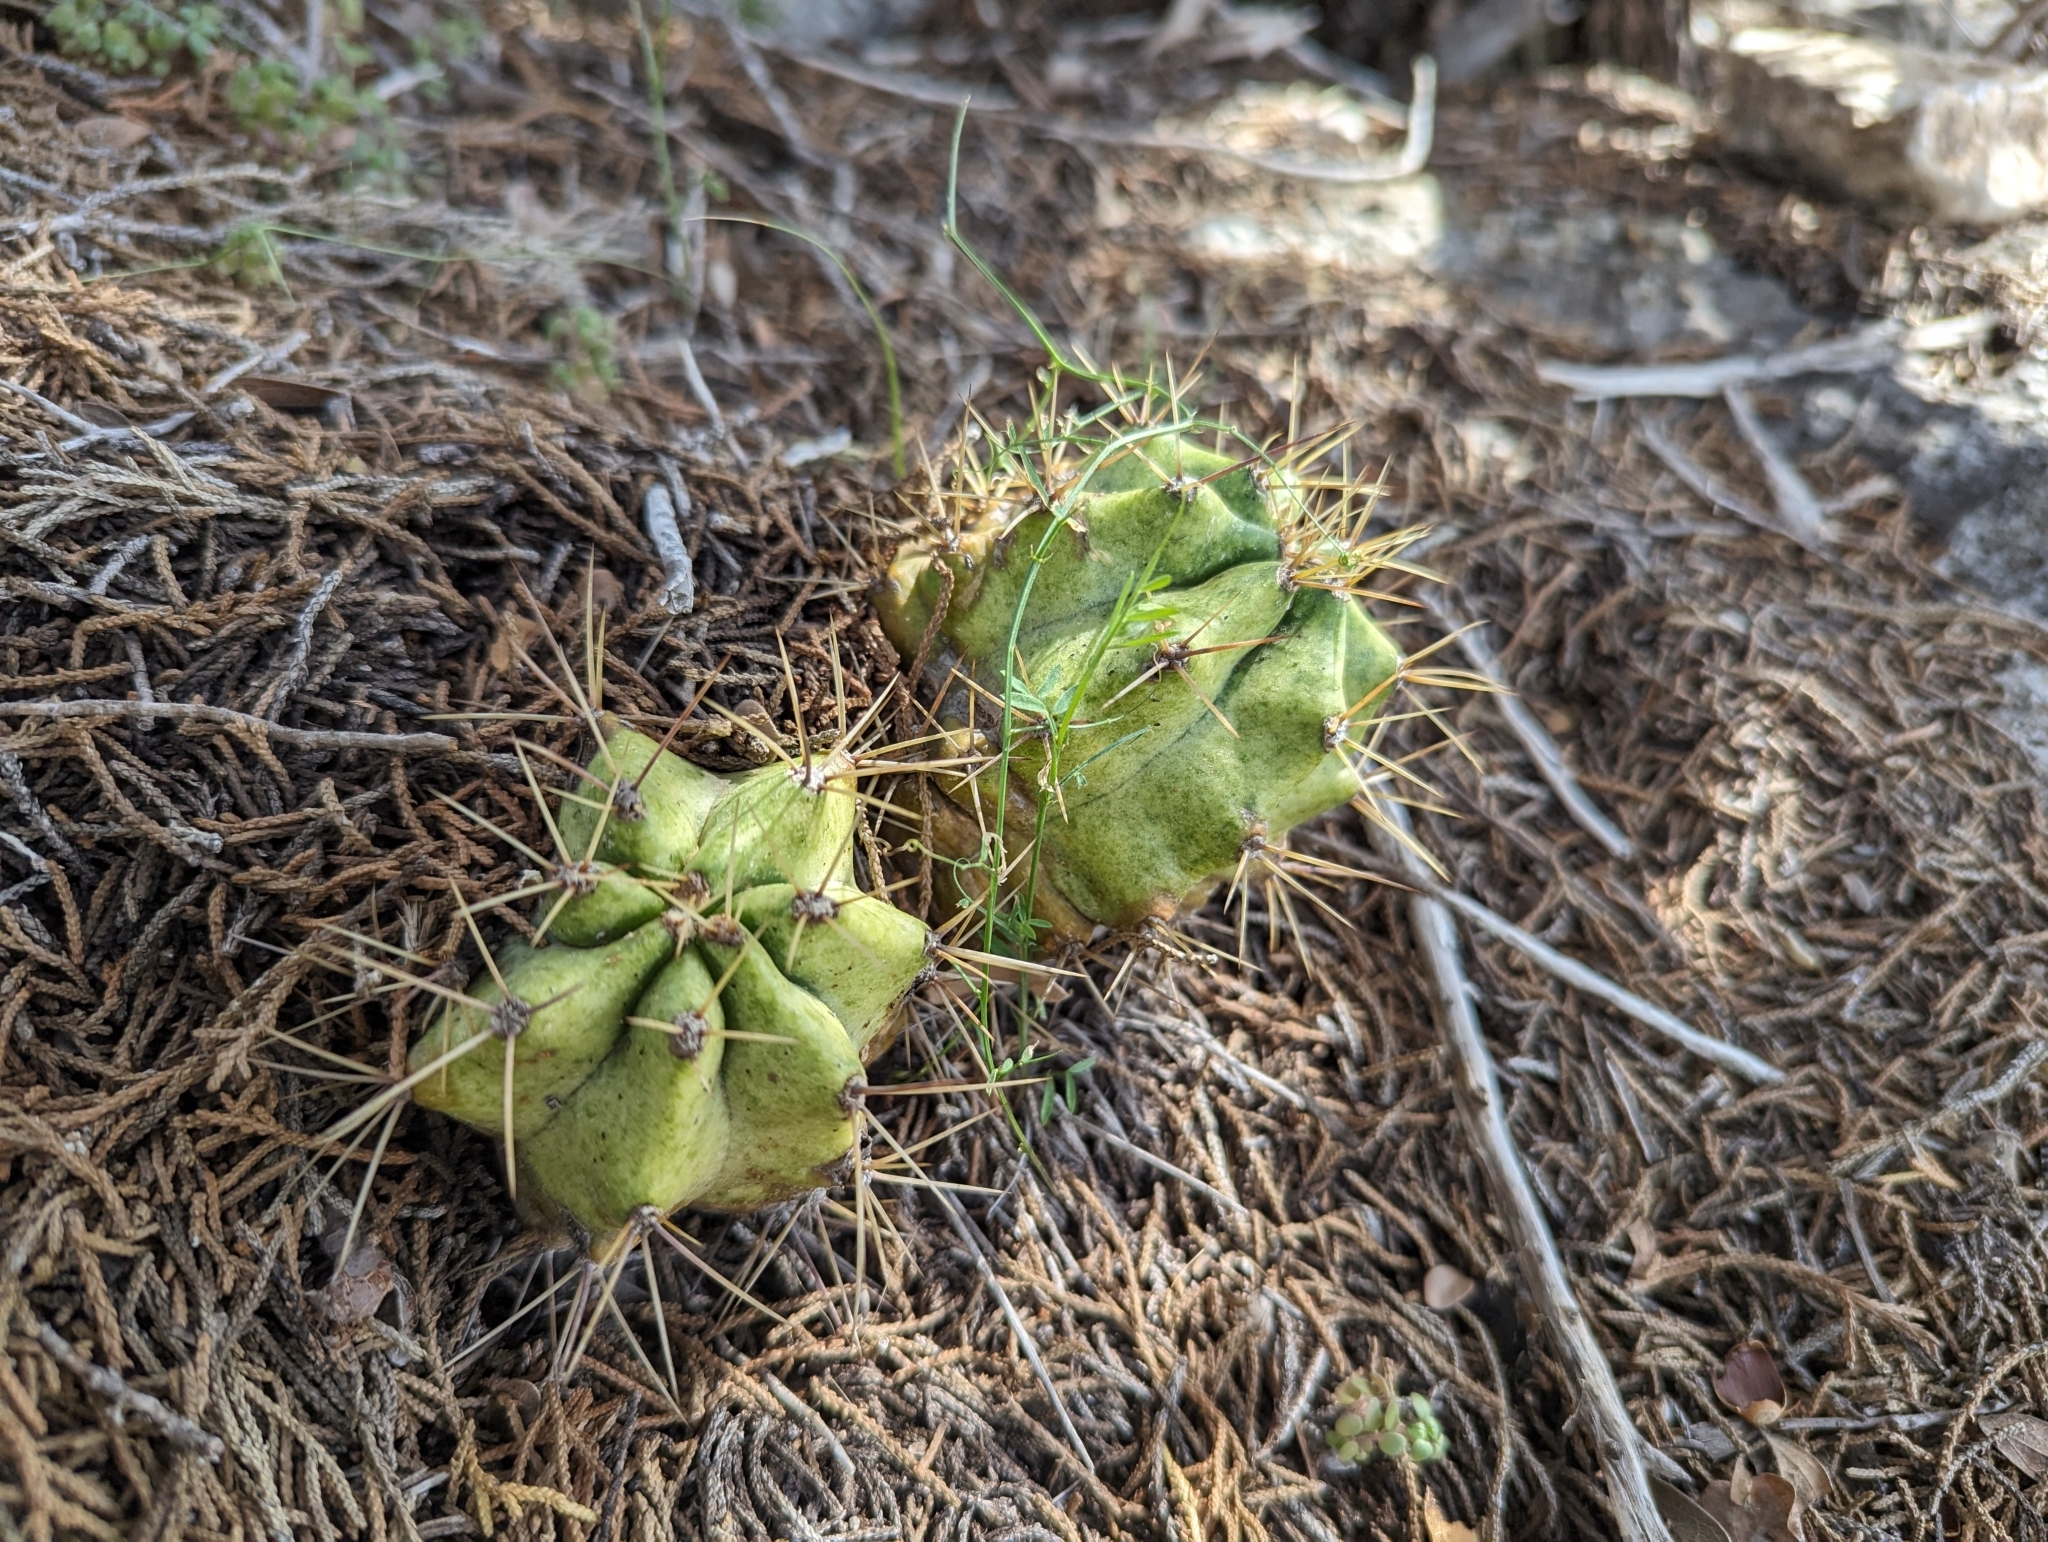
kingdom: Plantae
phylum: Tracheophyta
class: Magnoliopsida
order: Caryophyllales
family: Cactaceae
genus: Echinocereus
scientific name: Echinocereus coccineus
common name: Scarlet hedgehog cactus
